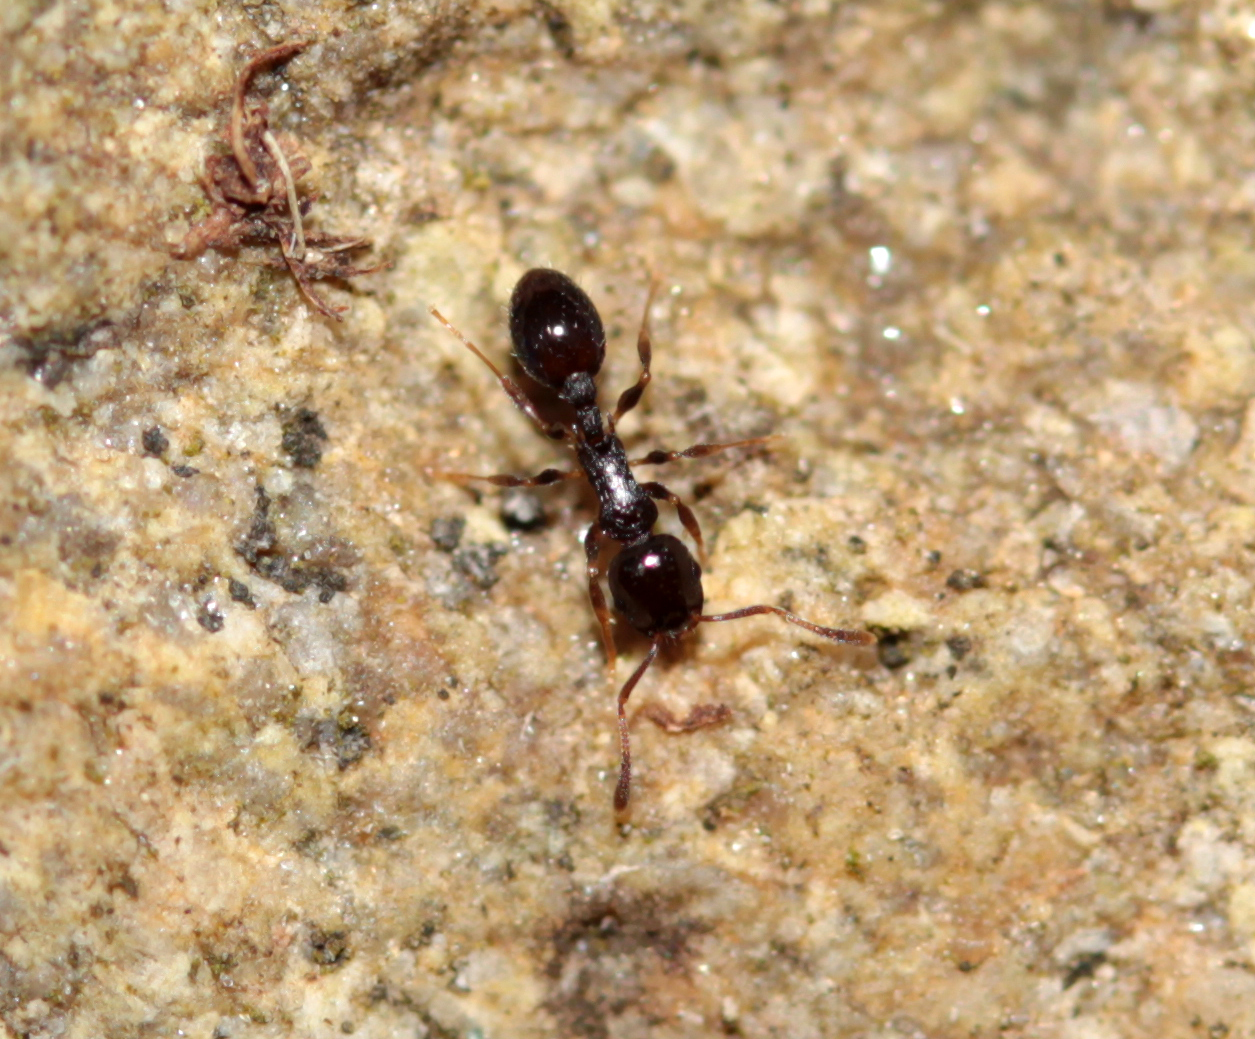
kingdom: Animalia
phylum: Arthropoda
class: Insecta
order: Hymenoptera
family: Formicidae
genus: Temnothorax
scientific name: Temnothorax longispinosus
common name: Long-spined acorn ant
